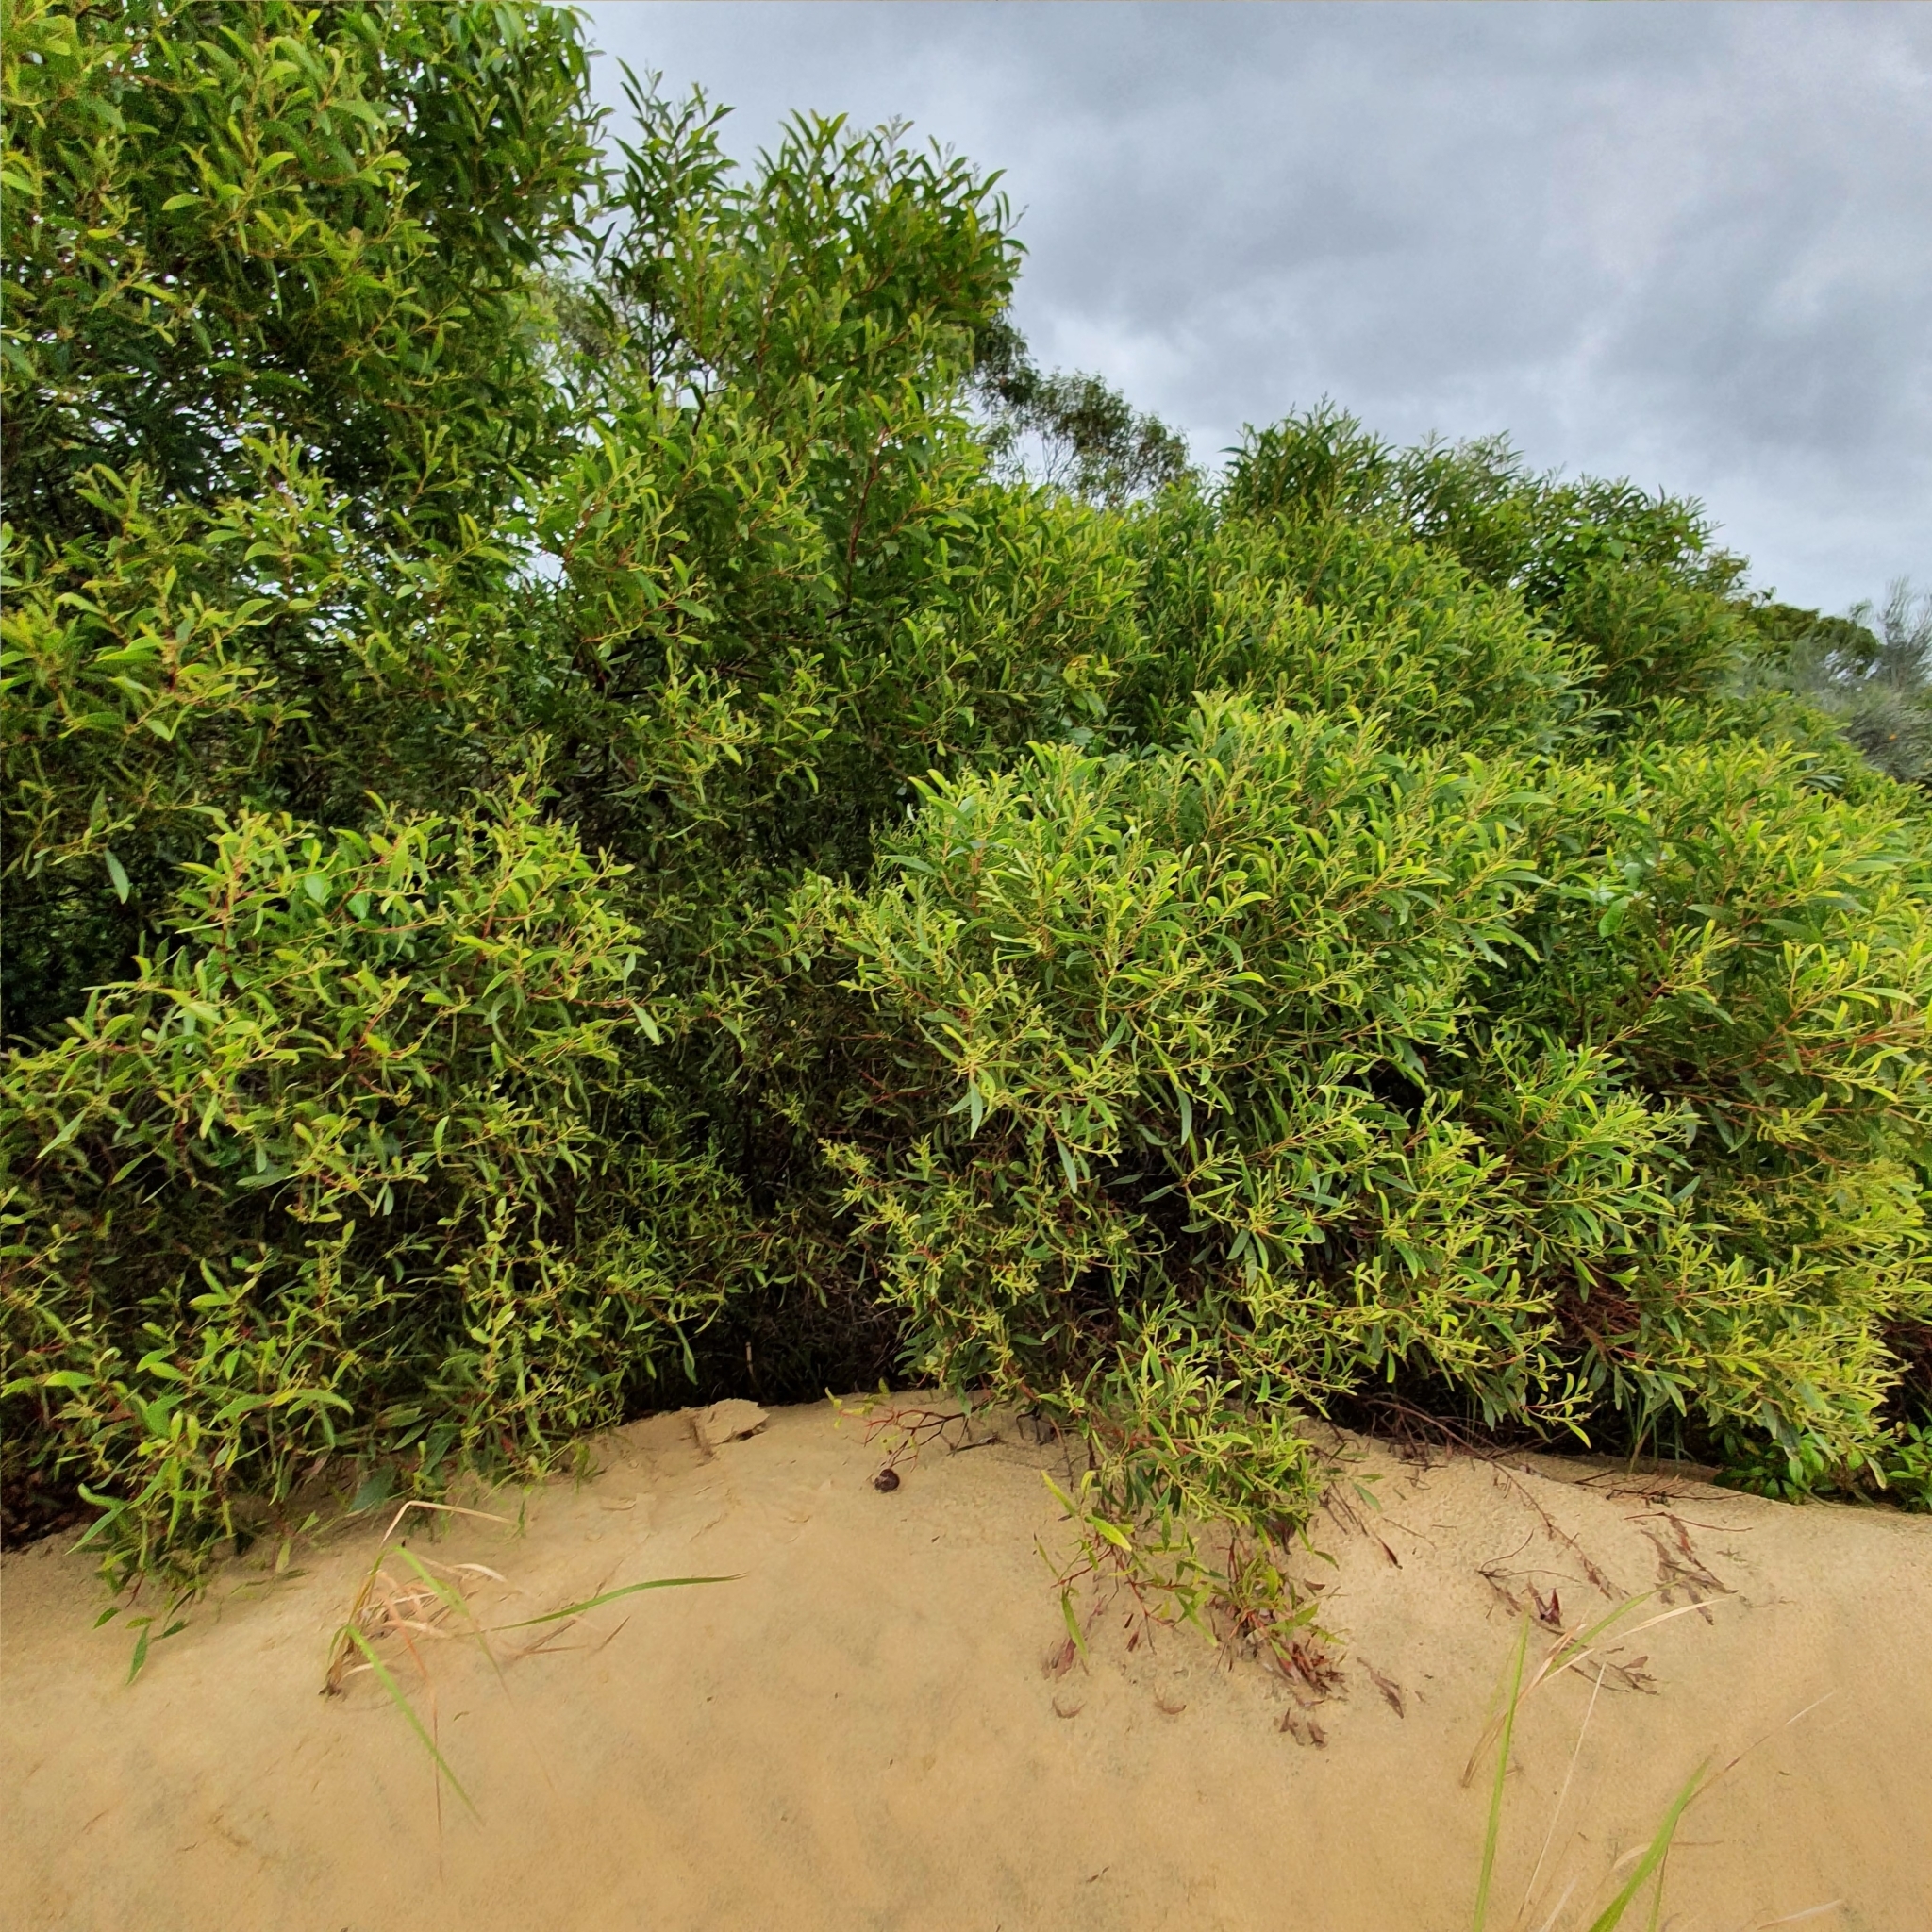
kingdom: Plantae
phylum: Tracheophyta
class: Magnoliopsida
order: Fabales
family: Fabaceae
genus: Acacia
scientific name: Acacia leiocalyx
